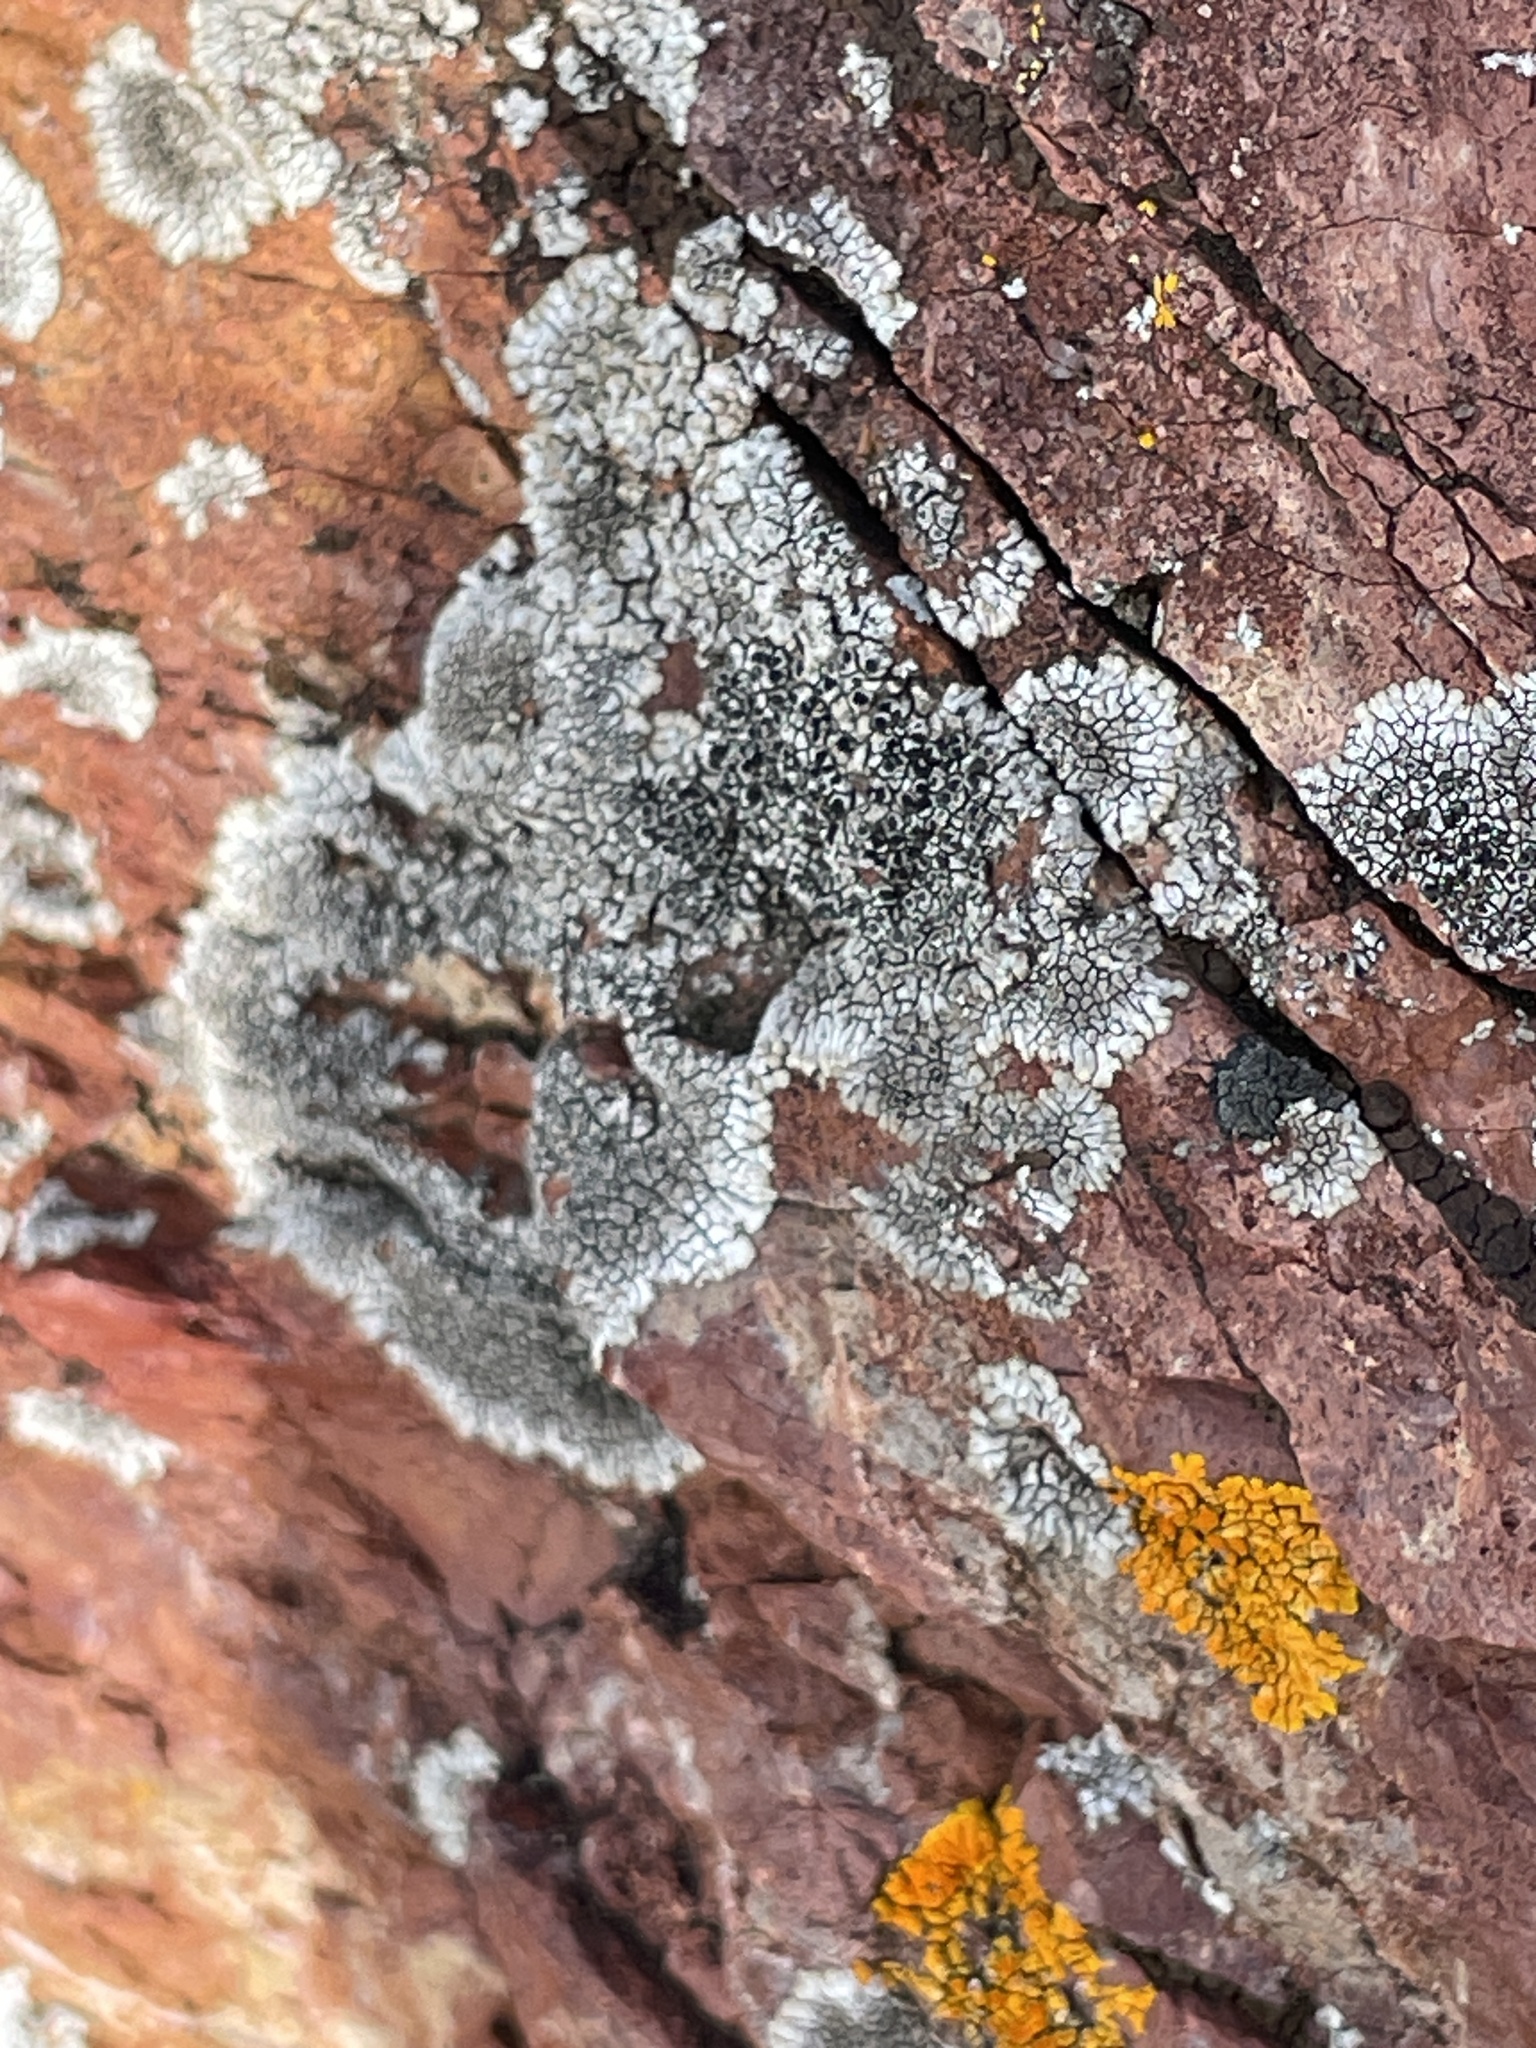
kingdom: Fungi
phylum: Ascomycota
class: Lecanoromycetes
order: Caliciales
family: Caliciaceae
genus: Dimelaena
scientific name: Dimelaena radiata
